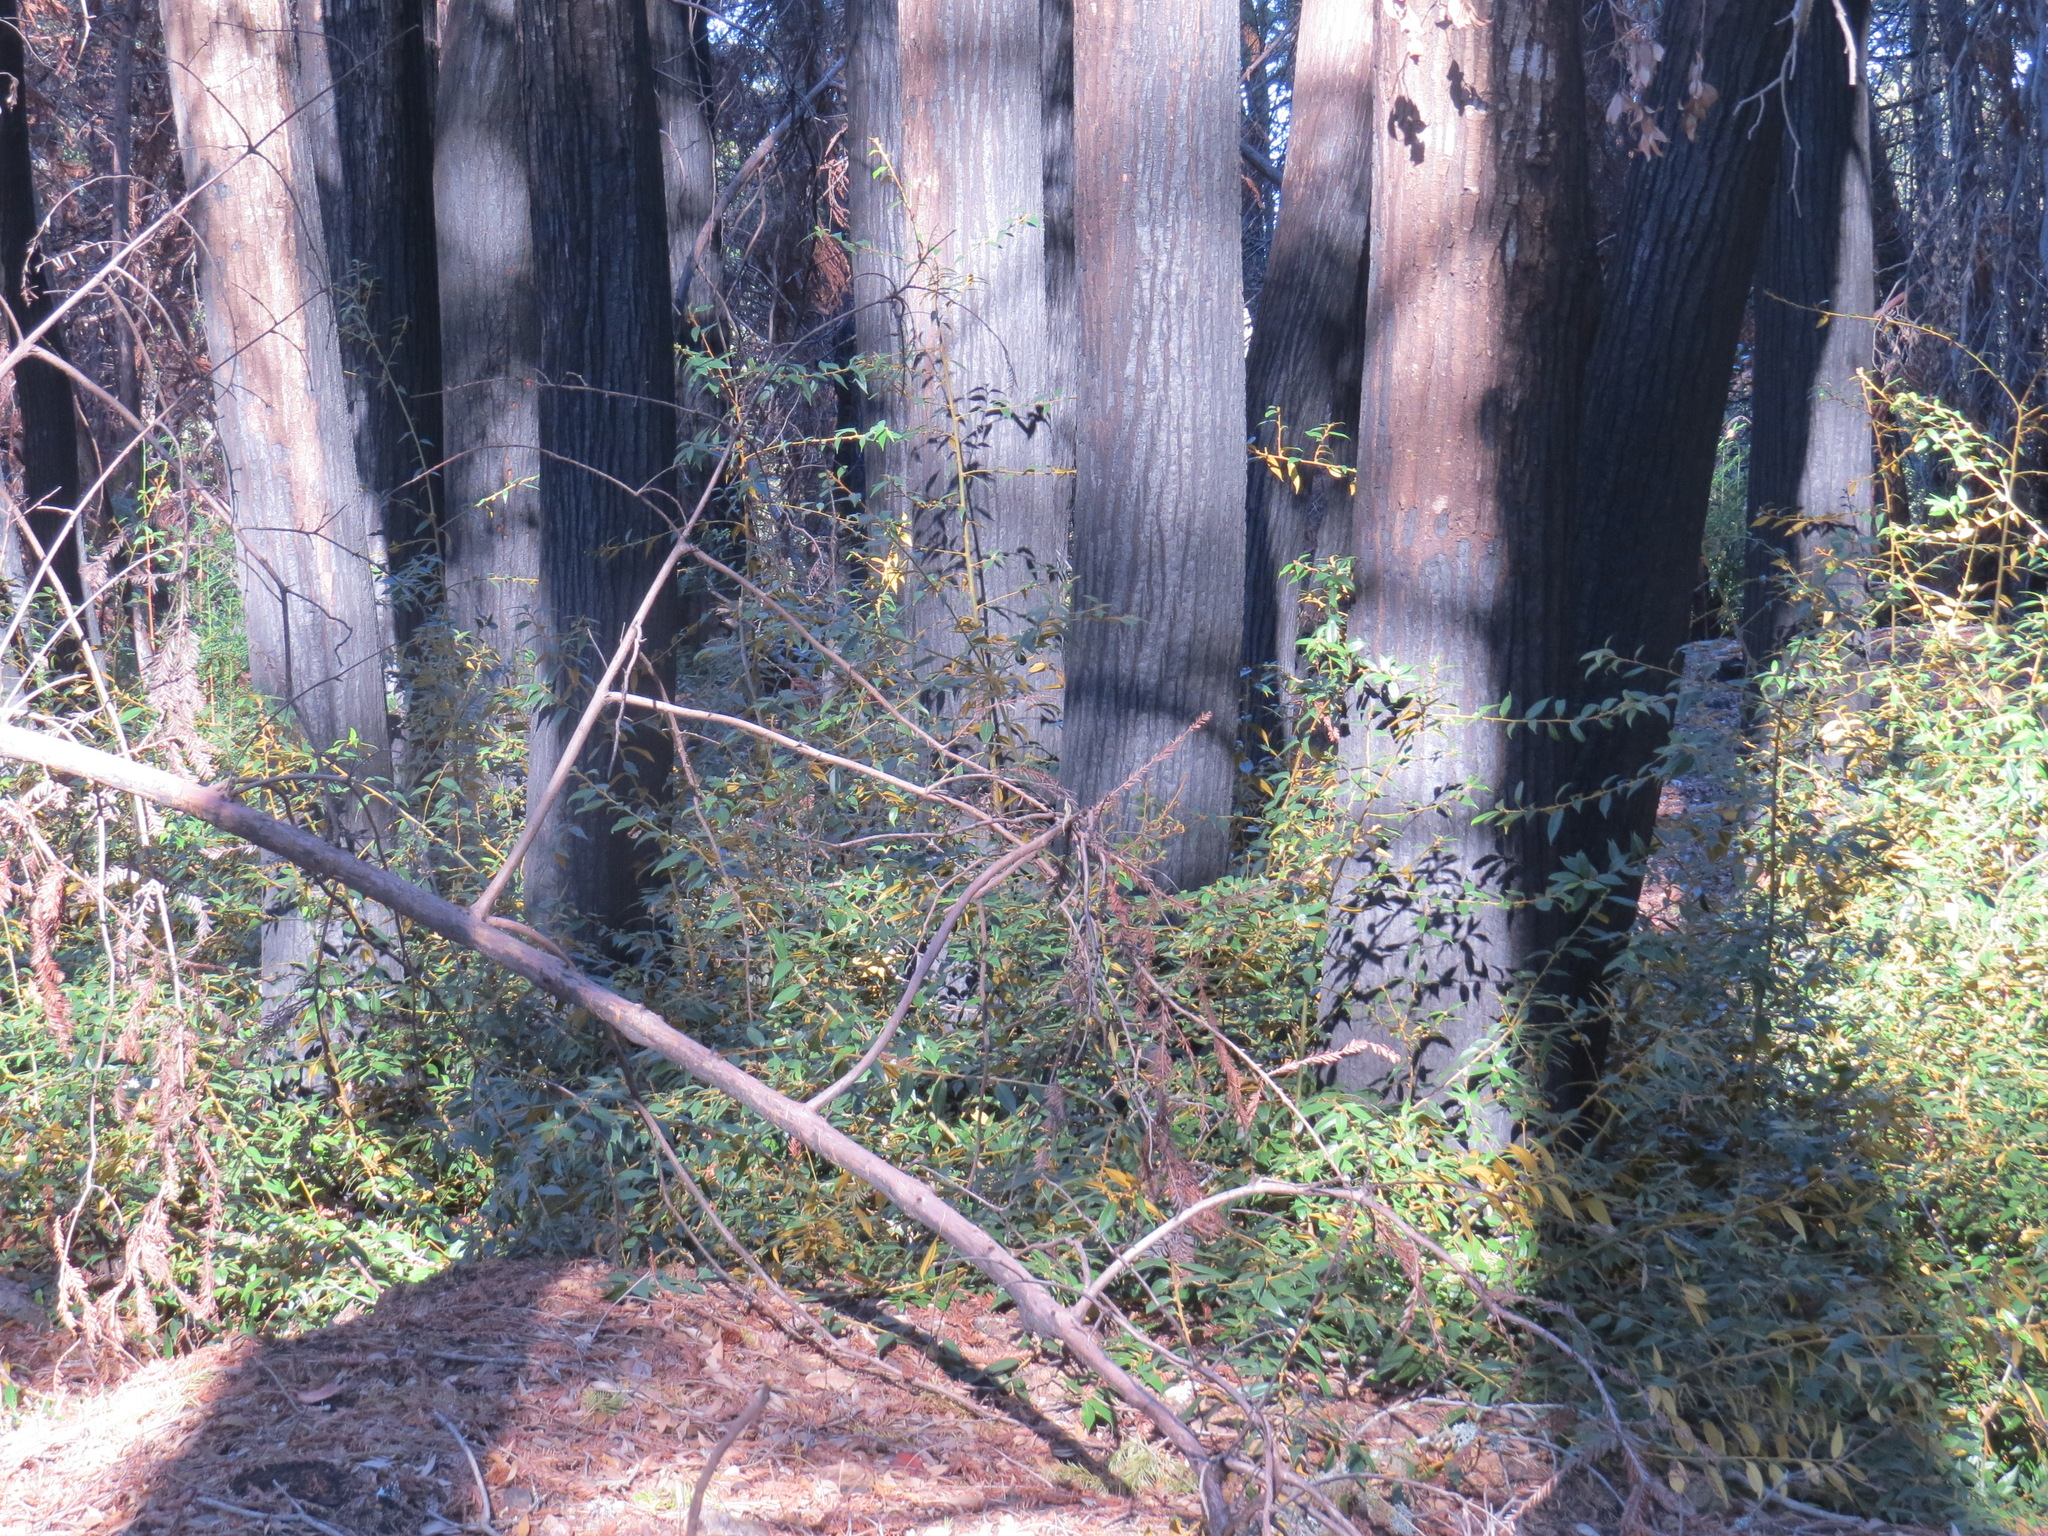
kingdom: Plantae
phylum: Tracheophyta
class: Magnoliopsida
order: Fagales
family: Fagaceae
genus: Chrysolepis
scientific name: Chrysolepis chrysophylla
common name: Giant chinquapin
